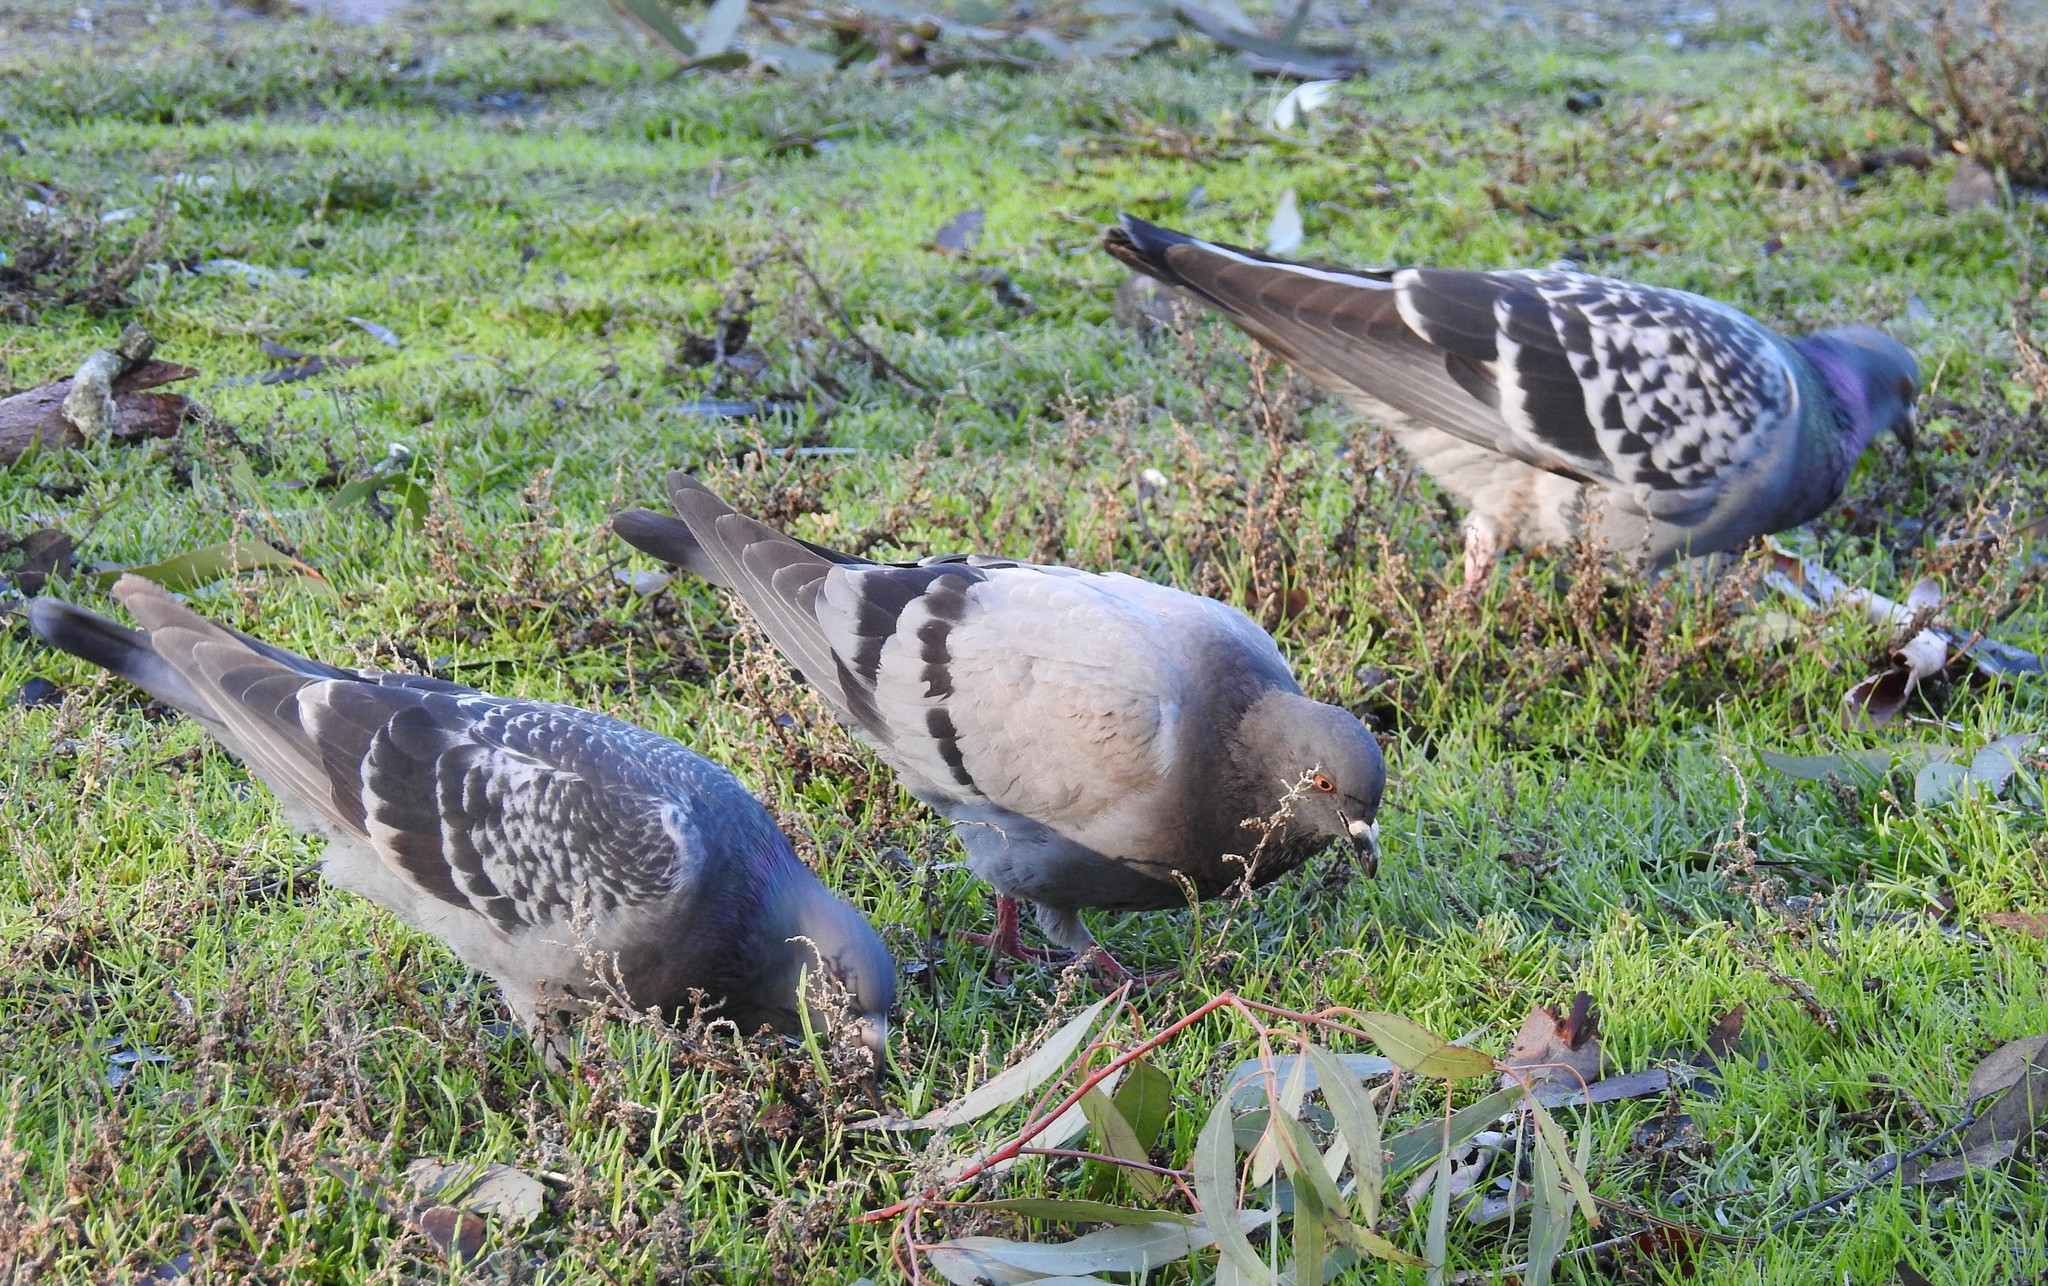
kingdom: Animalia
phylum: Chordata
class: Aves
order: Columbiformes
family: Columbidae
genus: Columba
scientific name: Columba livia
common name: Rock pigeon
